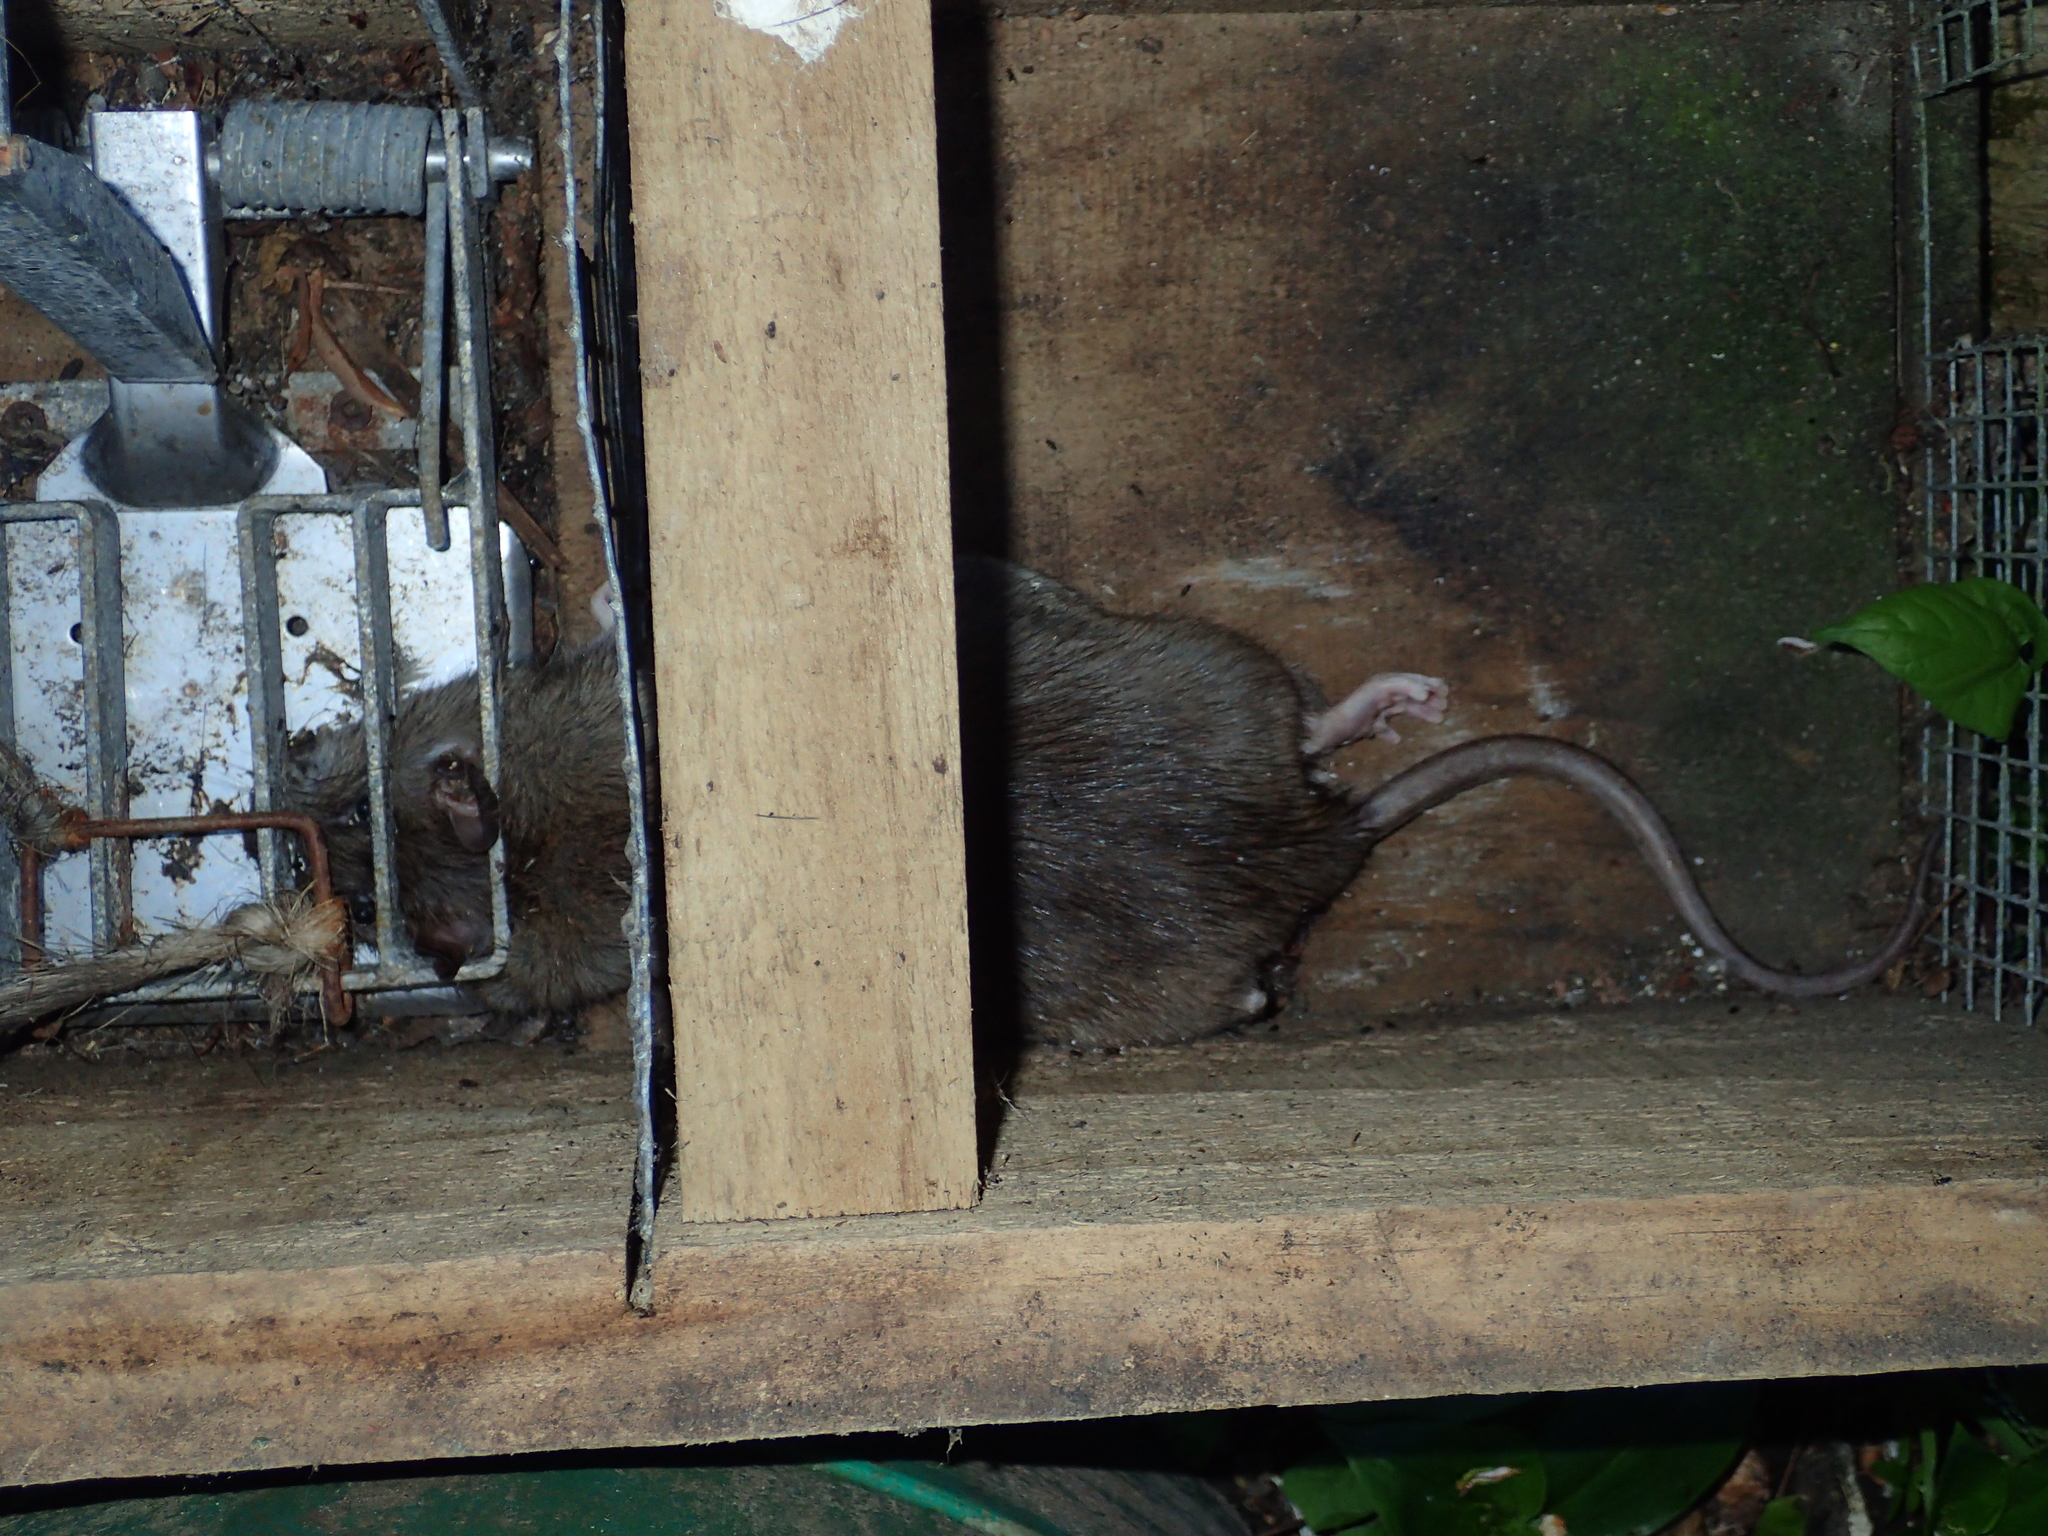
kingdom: Animalia
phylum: Chordata
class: Mammalia
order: Rodentia
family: Muridae
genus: Rattus
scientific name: Rattus norvegicus
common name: Brown rat
